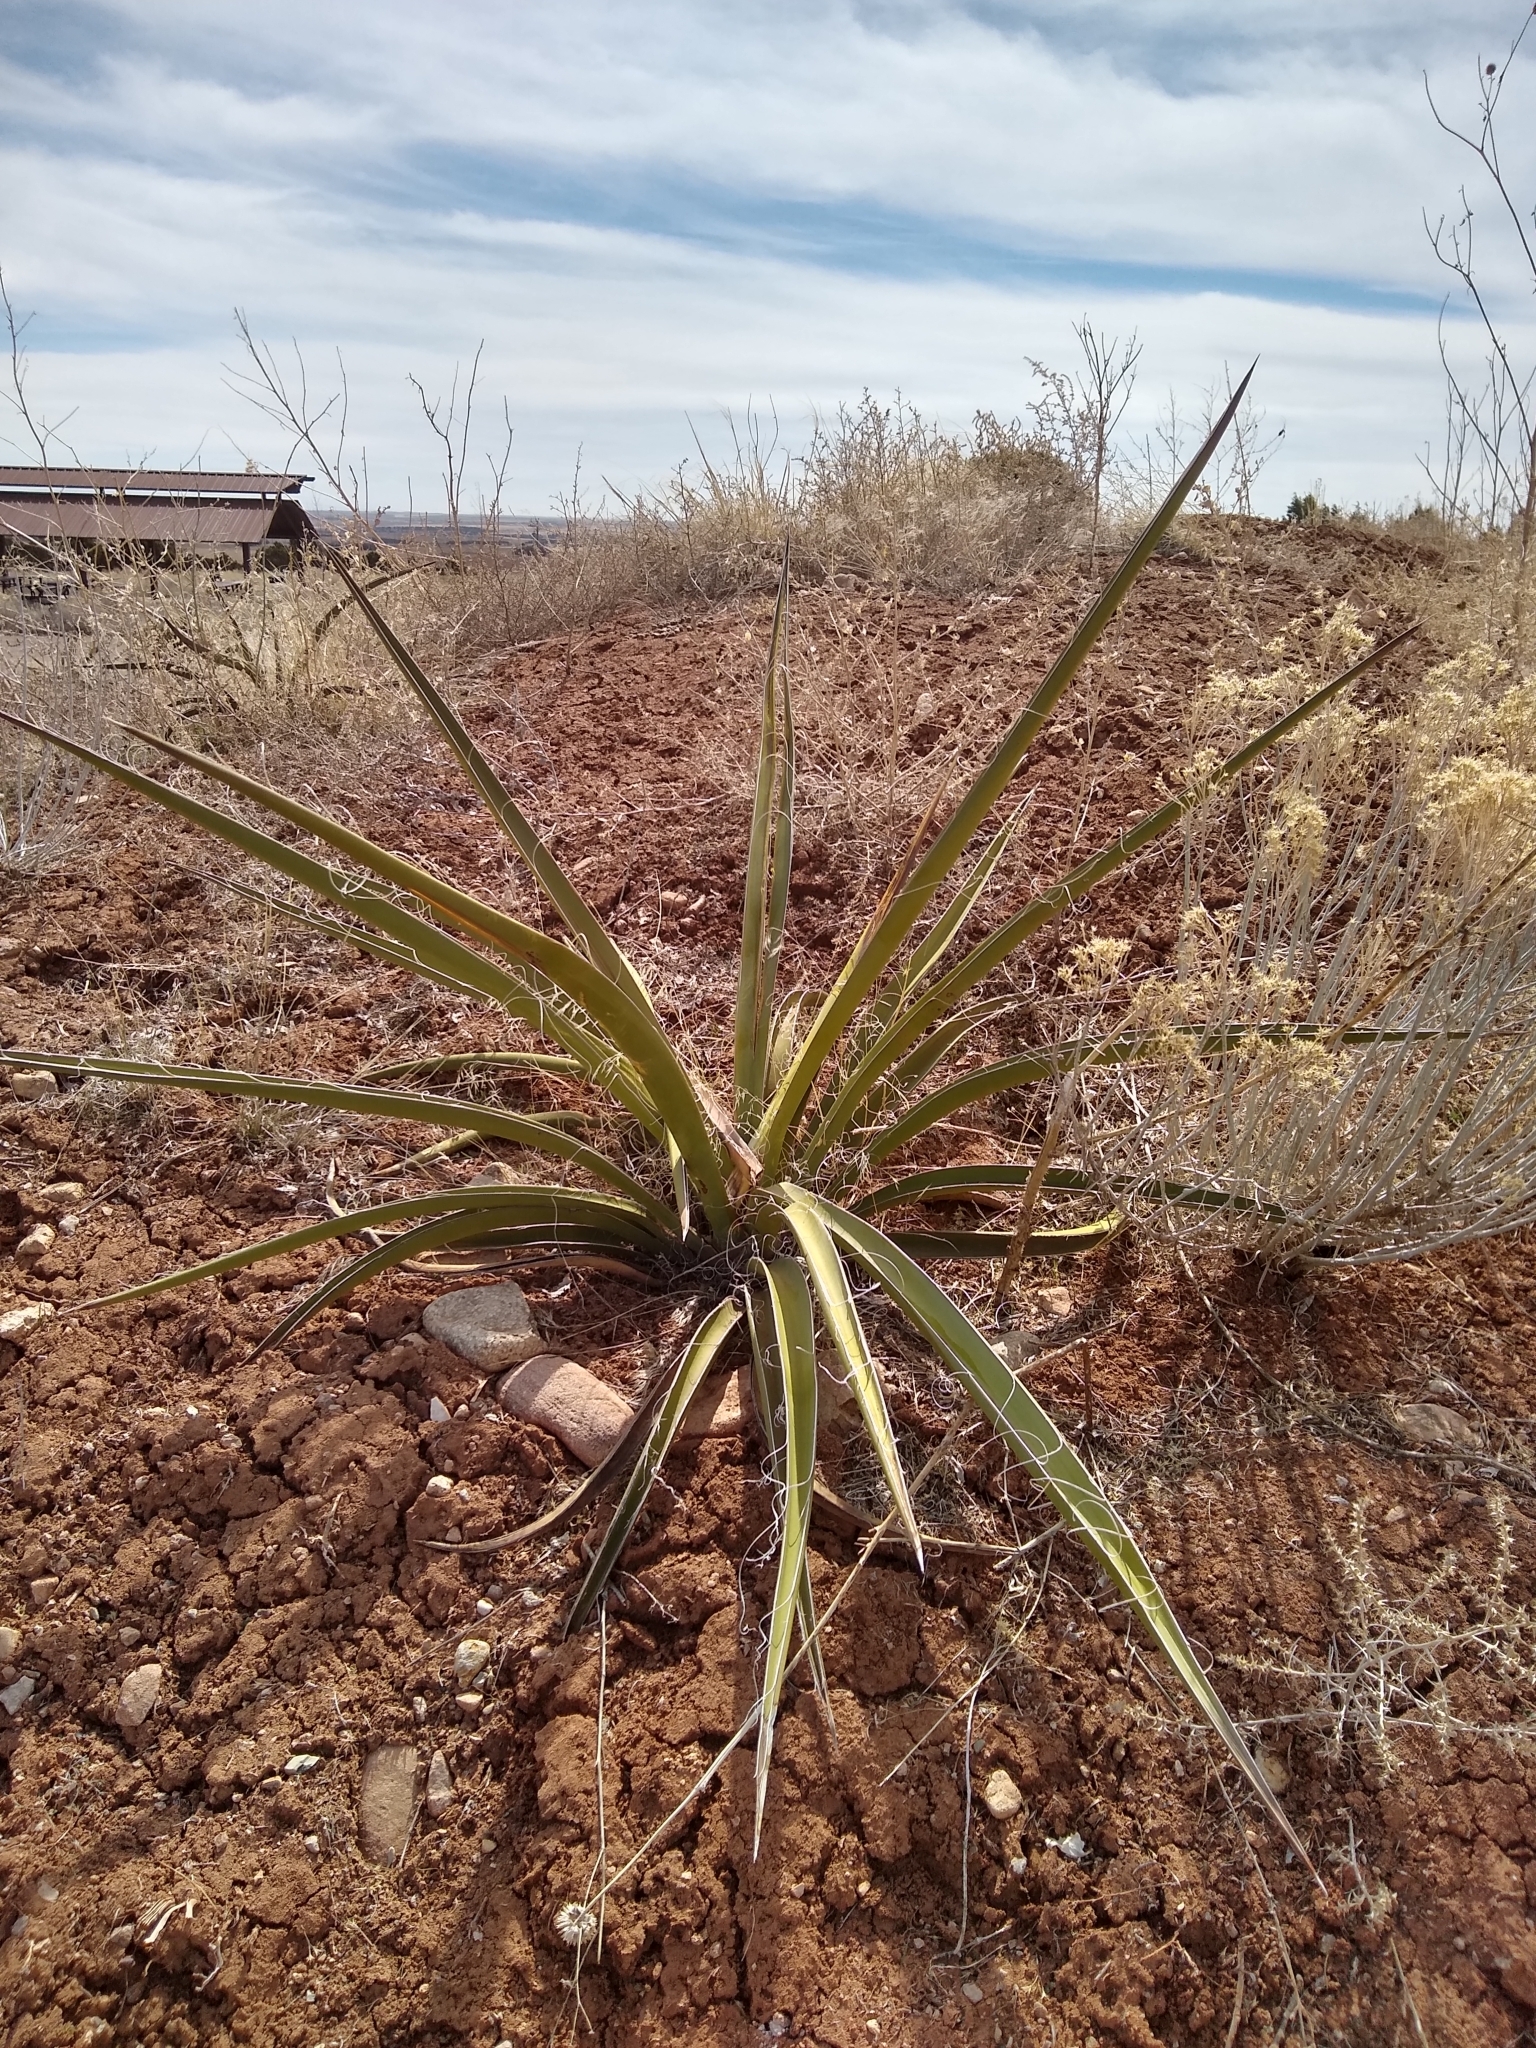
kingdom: Plantae
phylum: Tracheophyta
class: Liliopsida
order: Asparagales
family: Asparagaceae
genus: Yucca
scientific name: Yucca baccata
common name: Banana yucca
